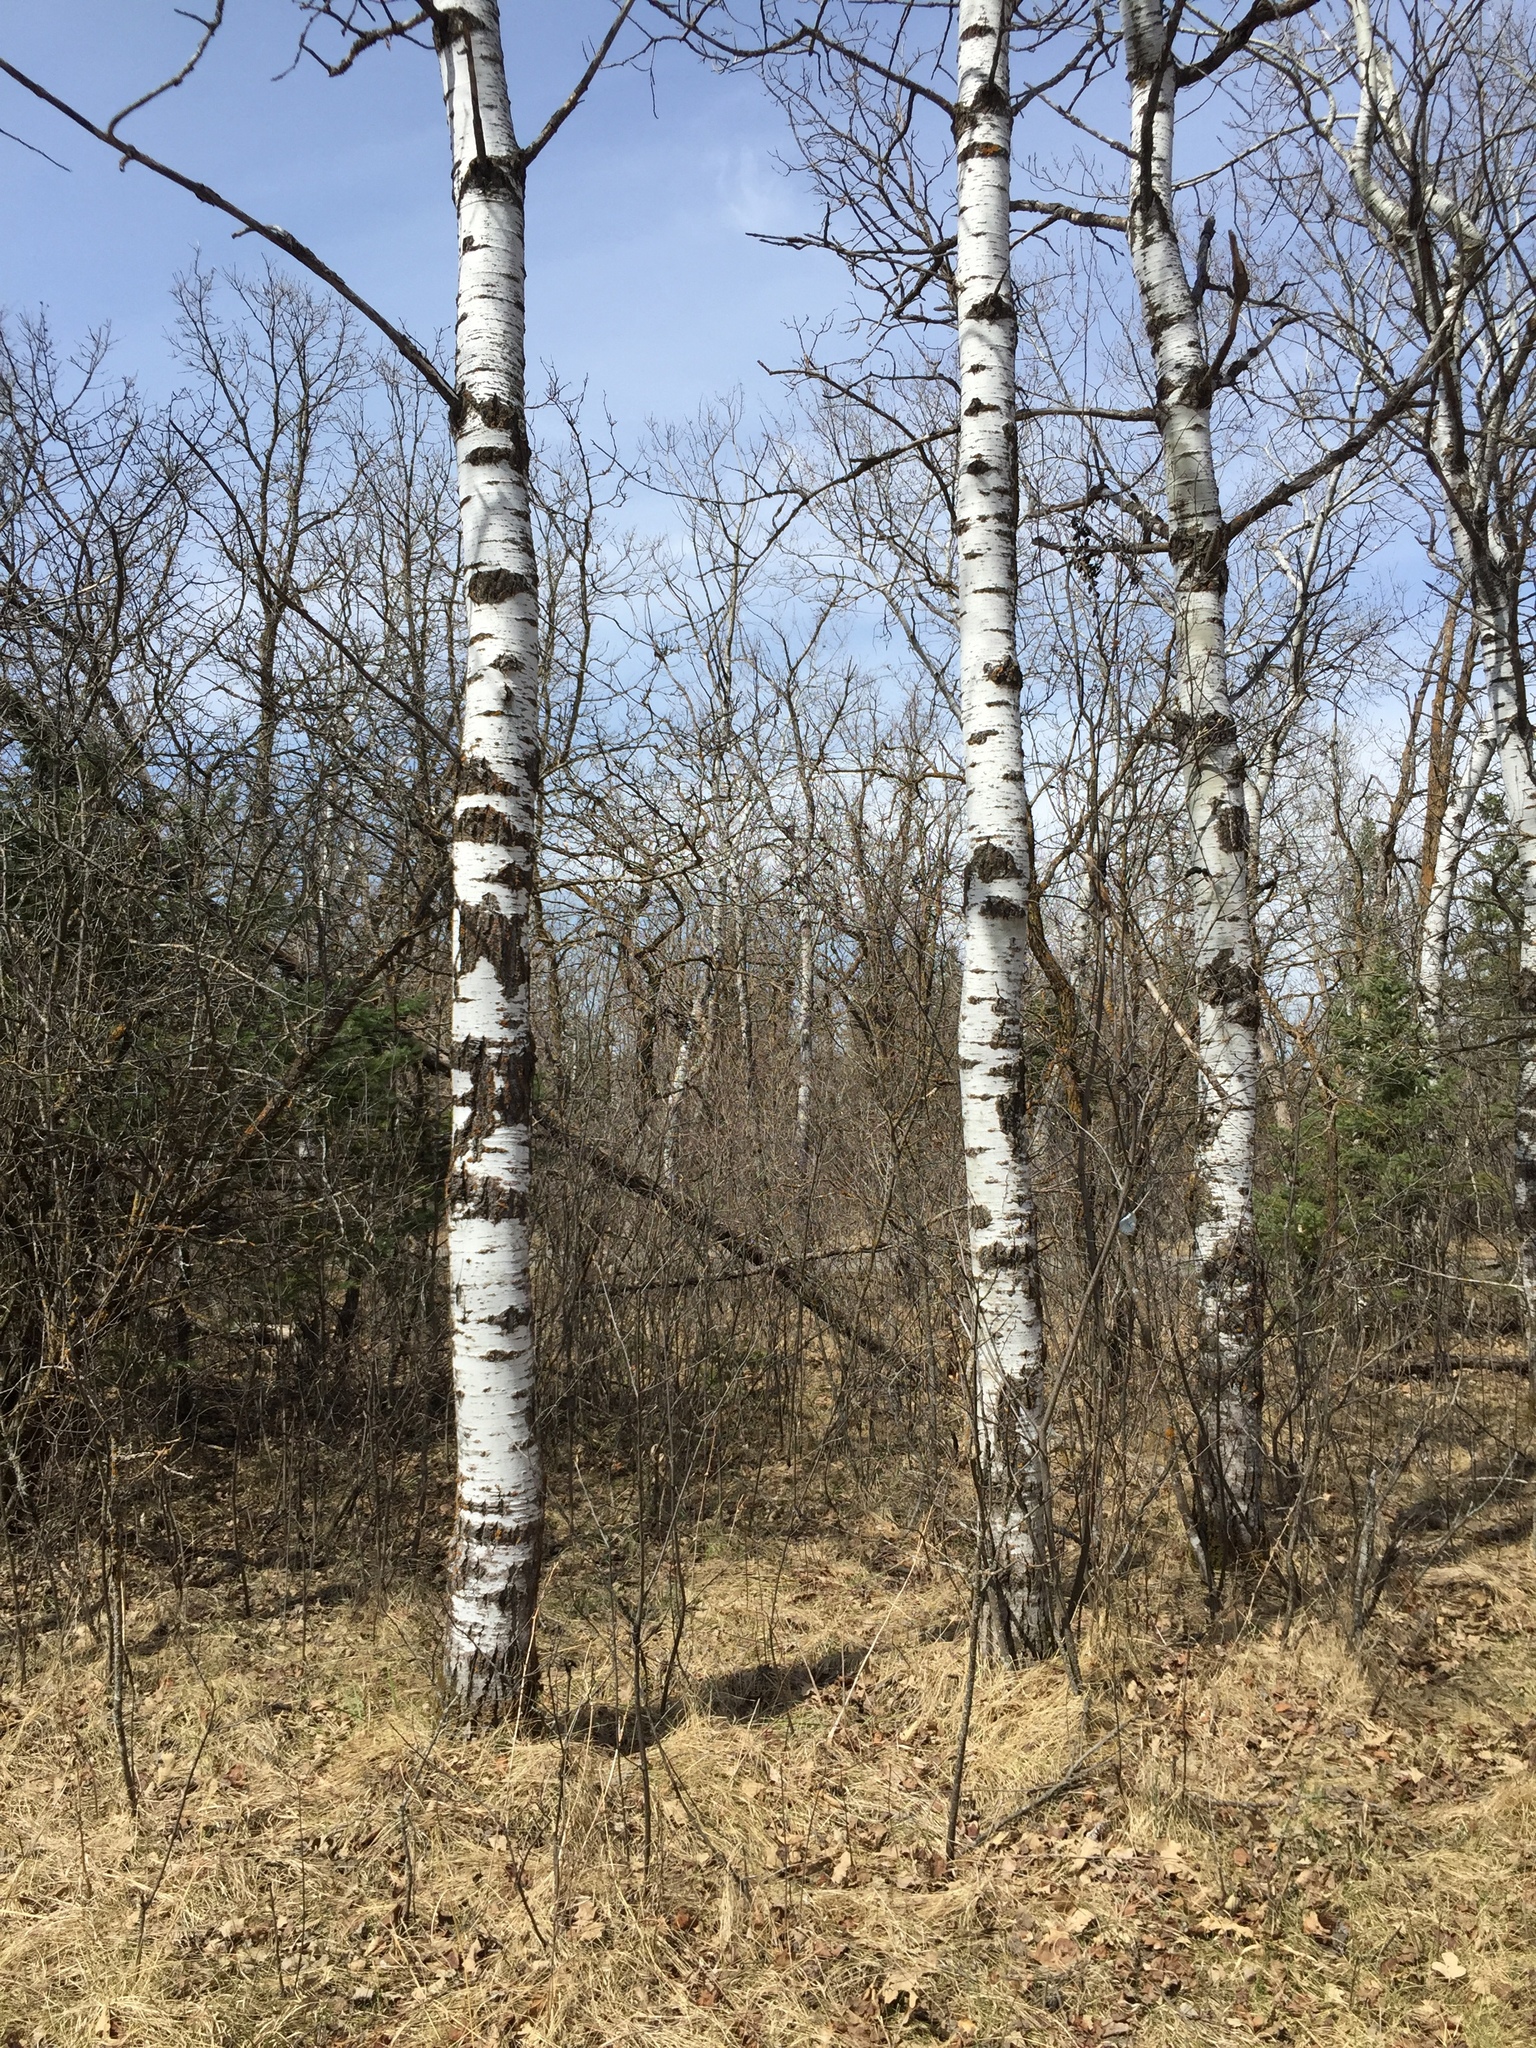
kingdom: Plantae
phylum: Tracheophyta
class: Magnoliopsida
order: Malpighiales
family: Salicaceae
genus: Populus
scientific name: Populus tremuloides
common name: Quaking aspen
